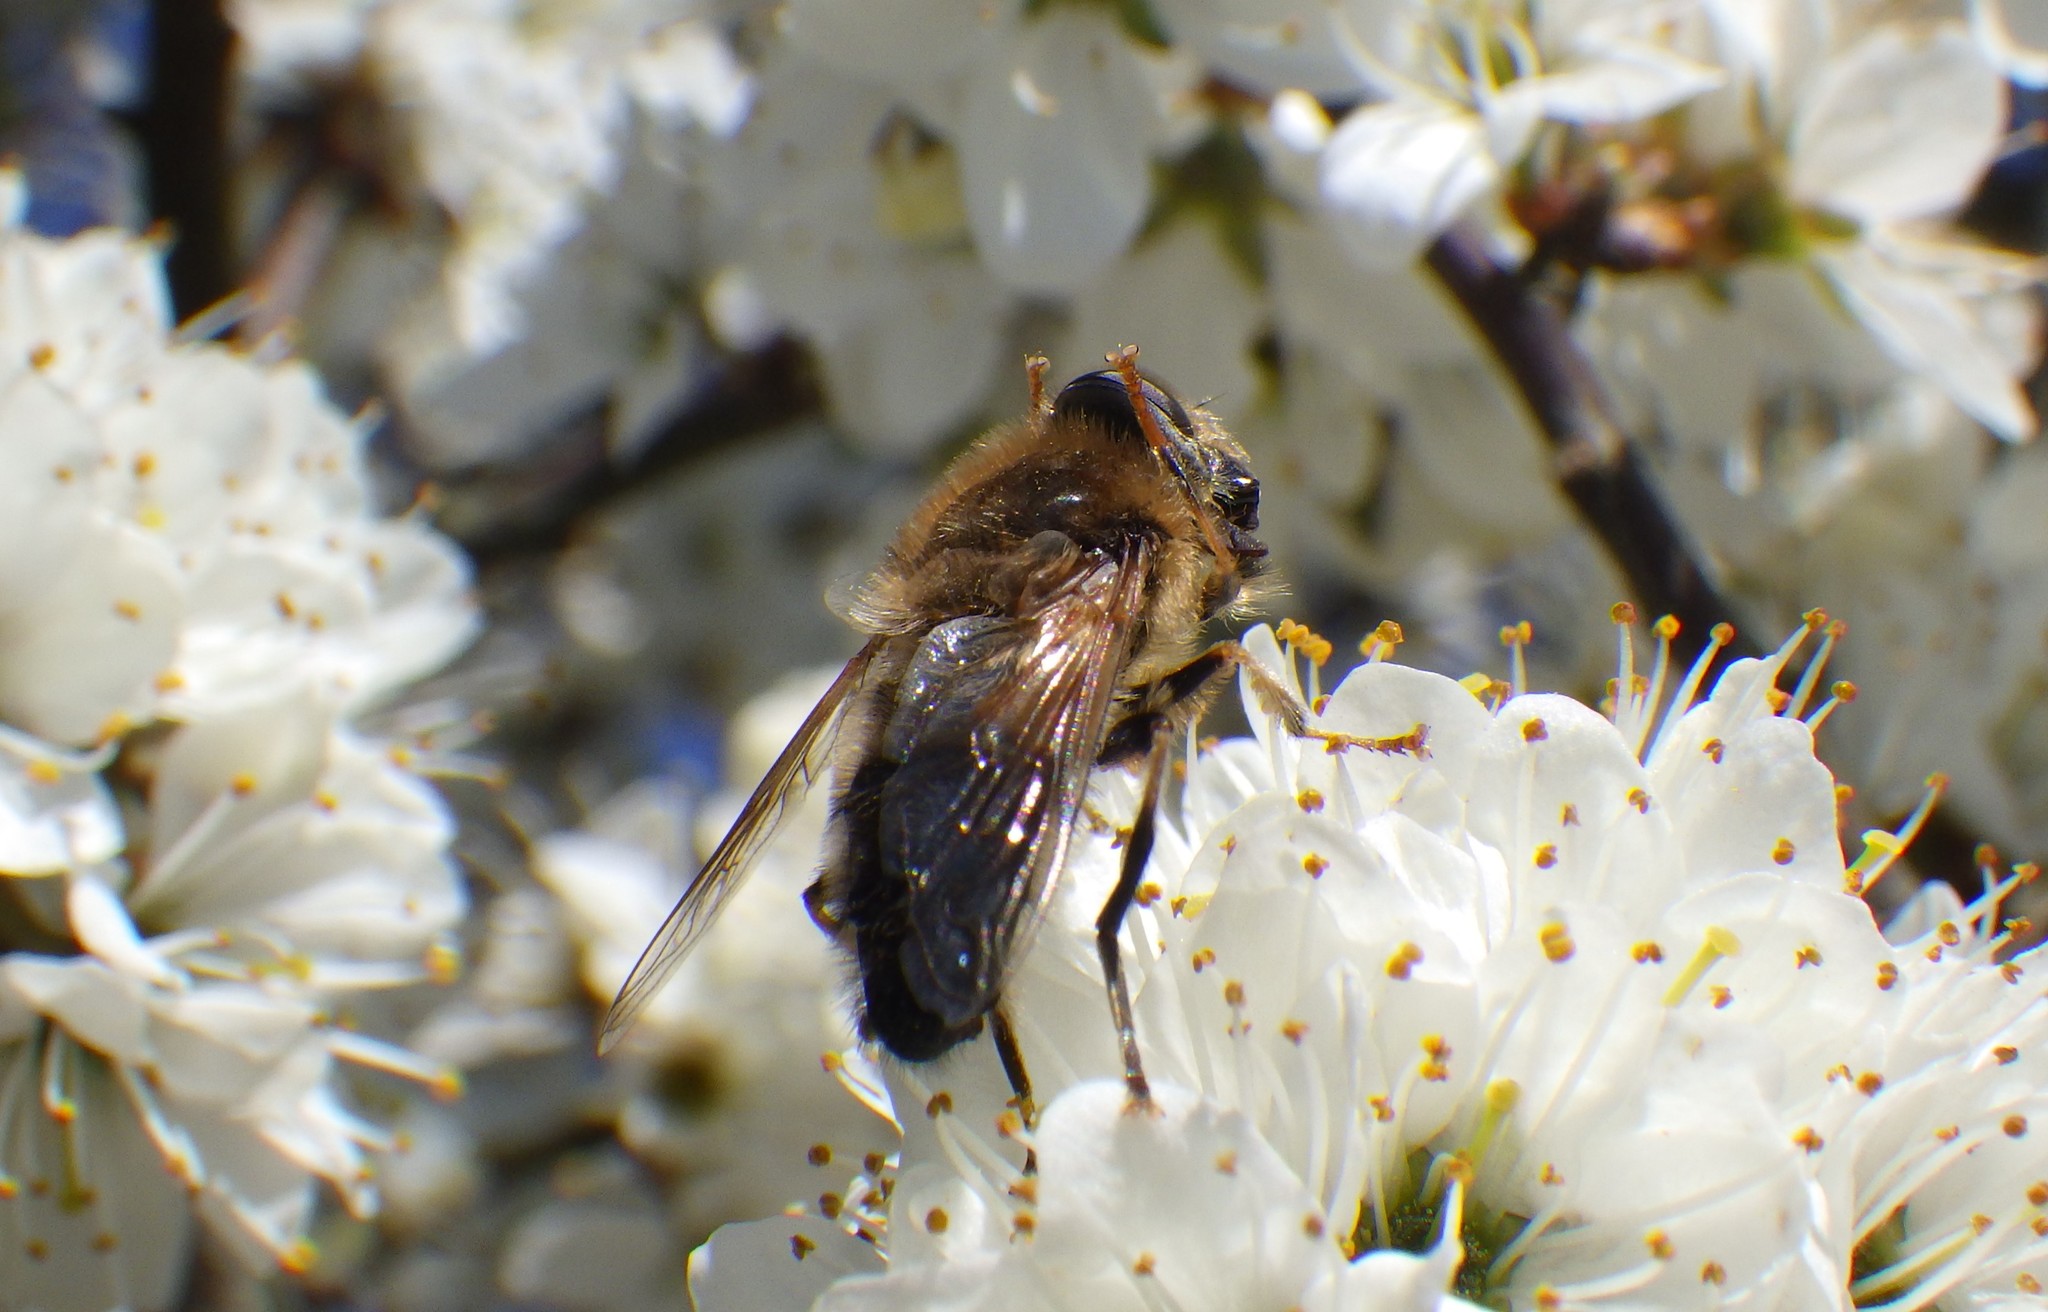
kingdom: Animalia
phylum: Arthropoda
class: Insecta
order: Diptera
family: Syrphidae
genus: Eristalis
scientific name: Eristalis pertinax
